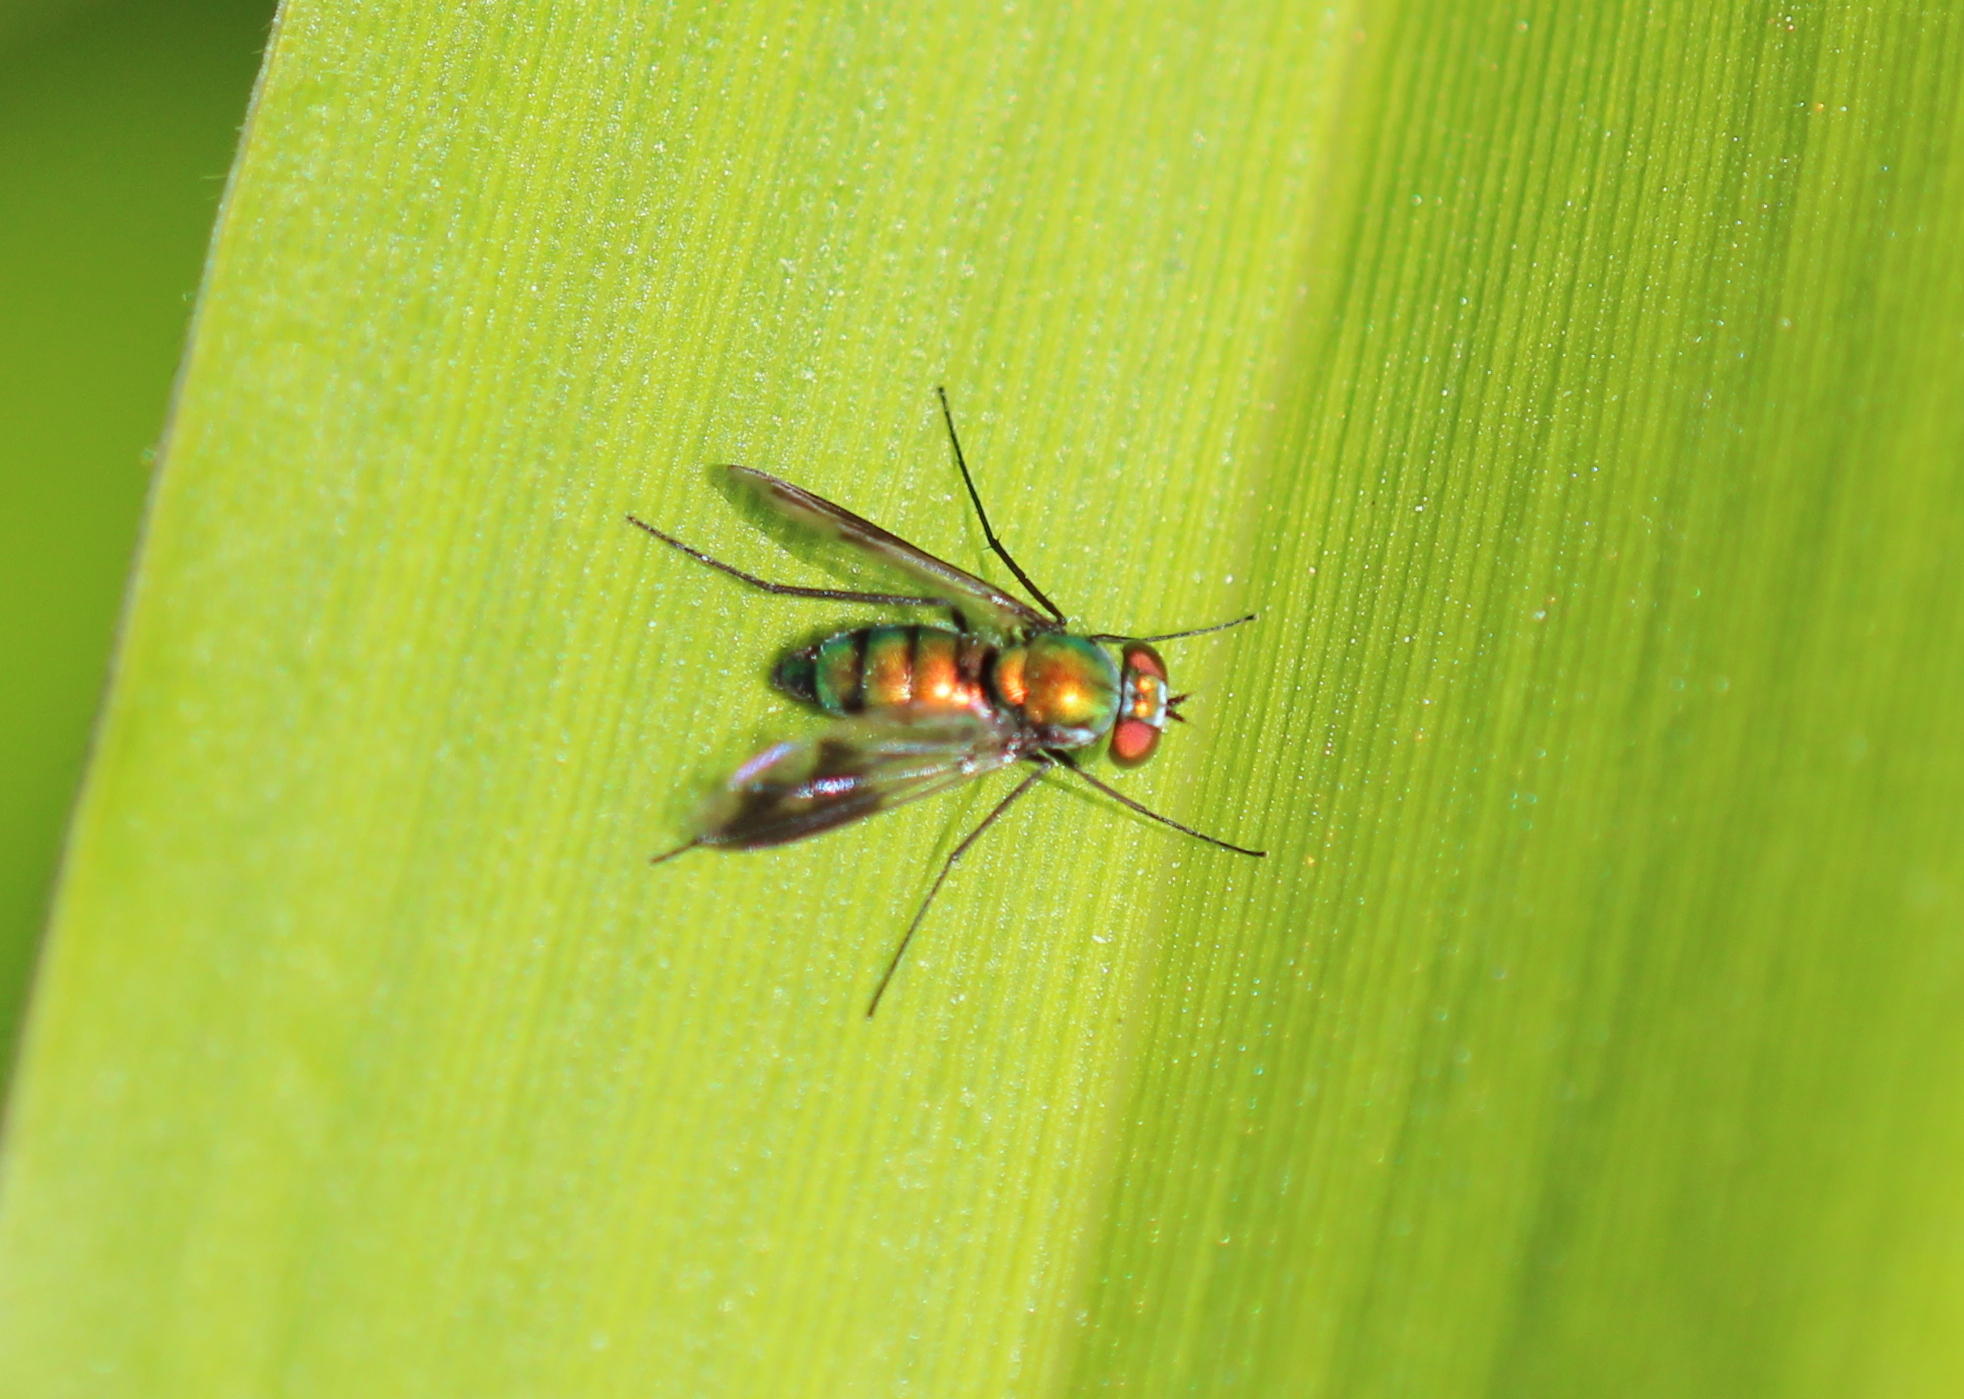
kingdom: Animalia
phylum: Arthropoda
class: Insecta
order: Diptera
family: Dolichopodidae
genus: Condylostylus
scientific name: Condylostylus patibulatus
